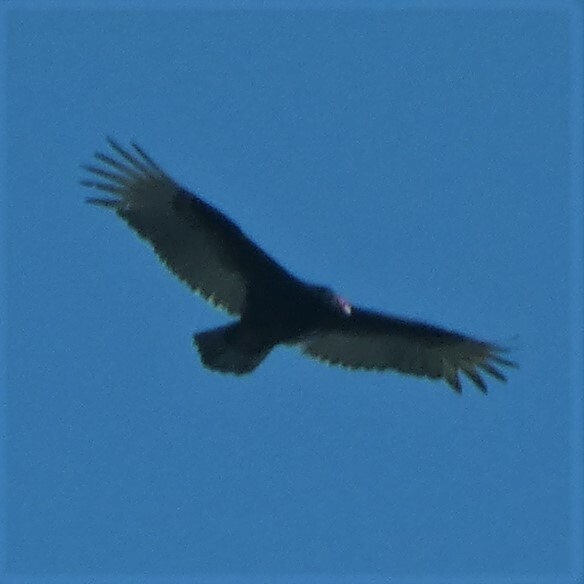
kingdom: Animalia
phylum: Chordata
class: Aves
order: Accipitriformes
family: Cathartidae
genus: Cathartes
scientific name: Cathartes aura
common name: Turkey vulture
